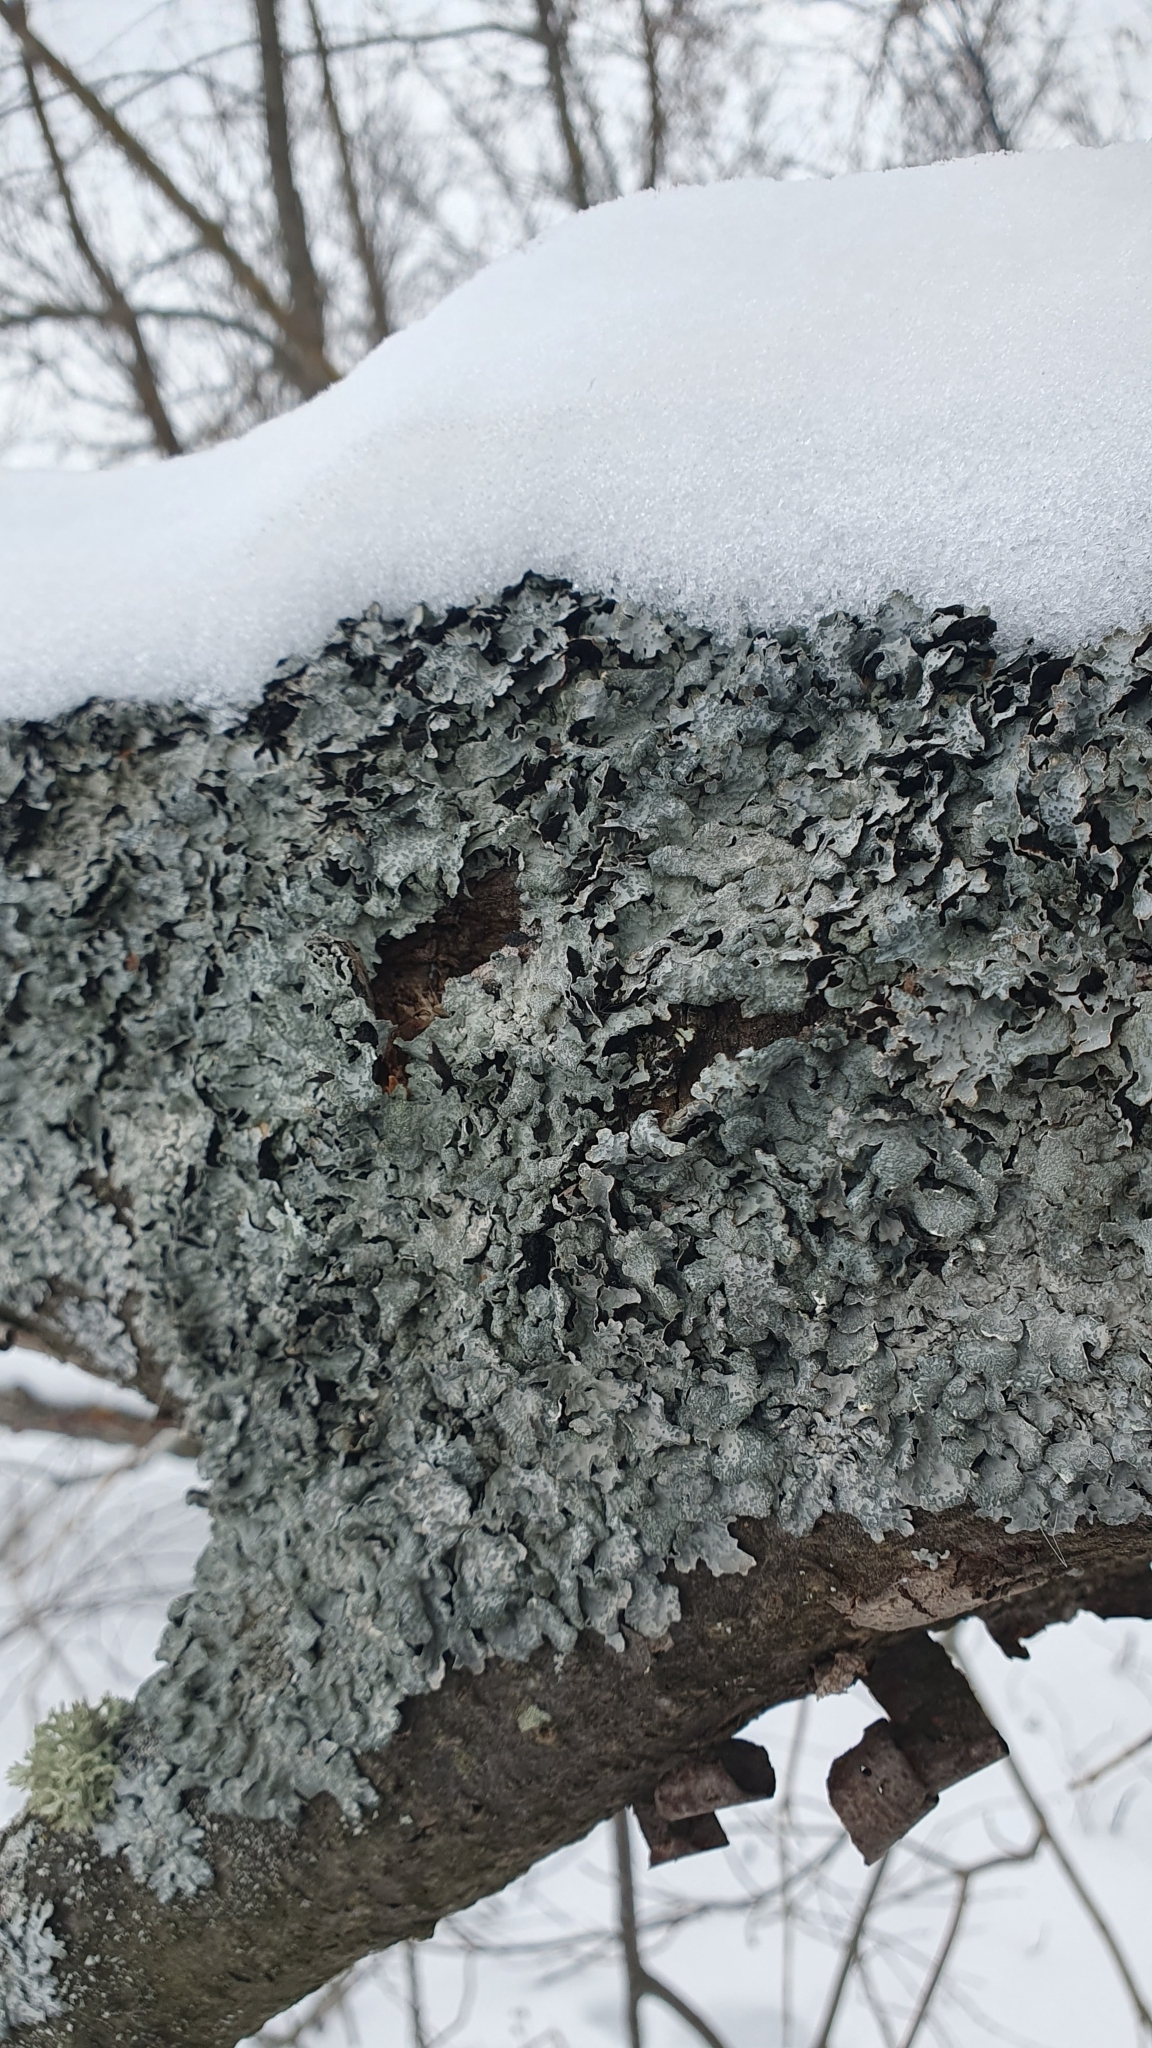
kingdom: Fungi
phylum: Ascomycota
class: Lecanoromycetes
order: Lecanorales
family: Parmeliaceae
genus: Parmelia
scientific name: Parmelia sulcata
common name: Netted shield lichen
